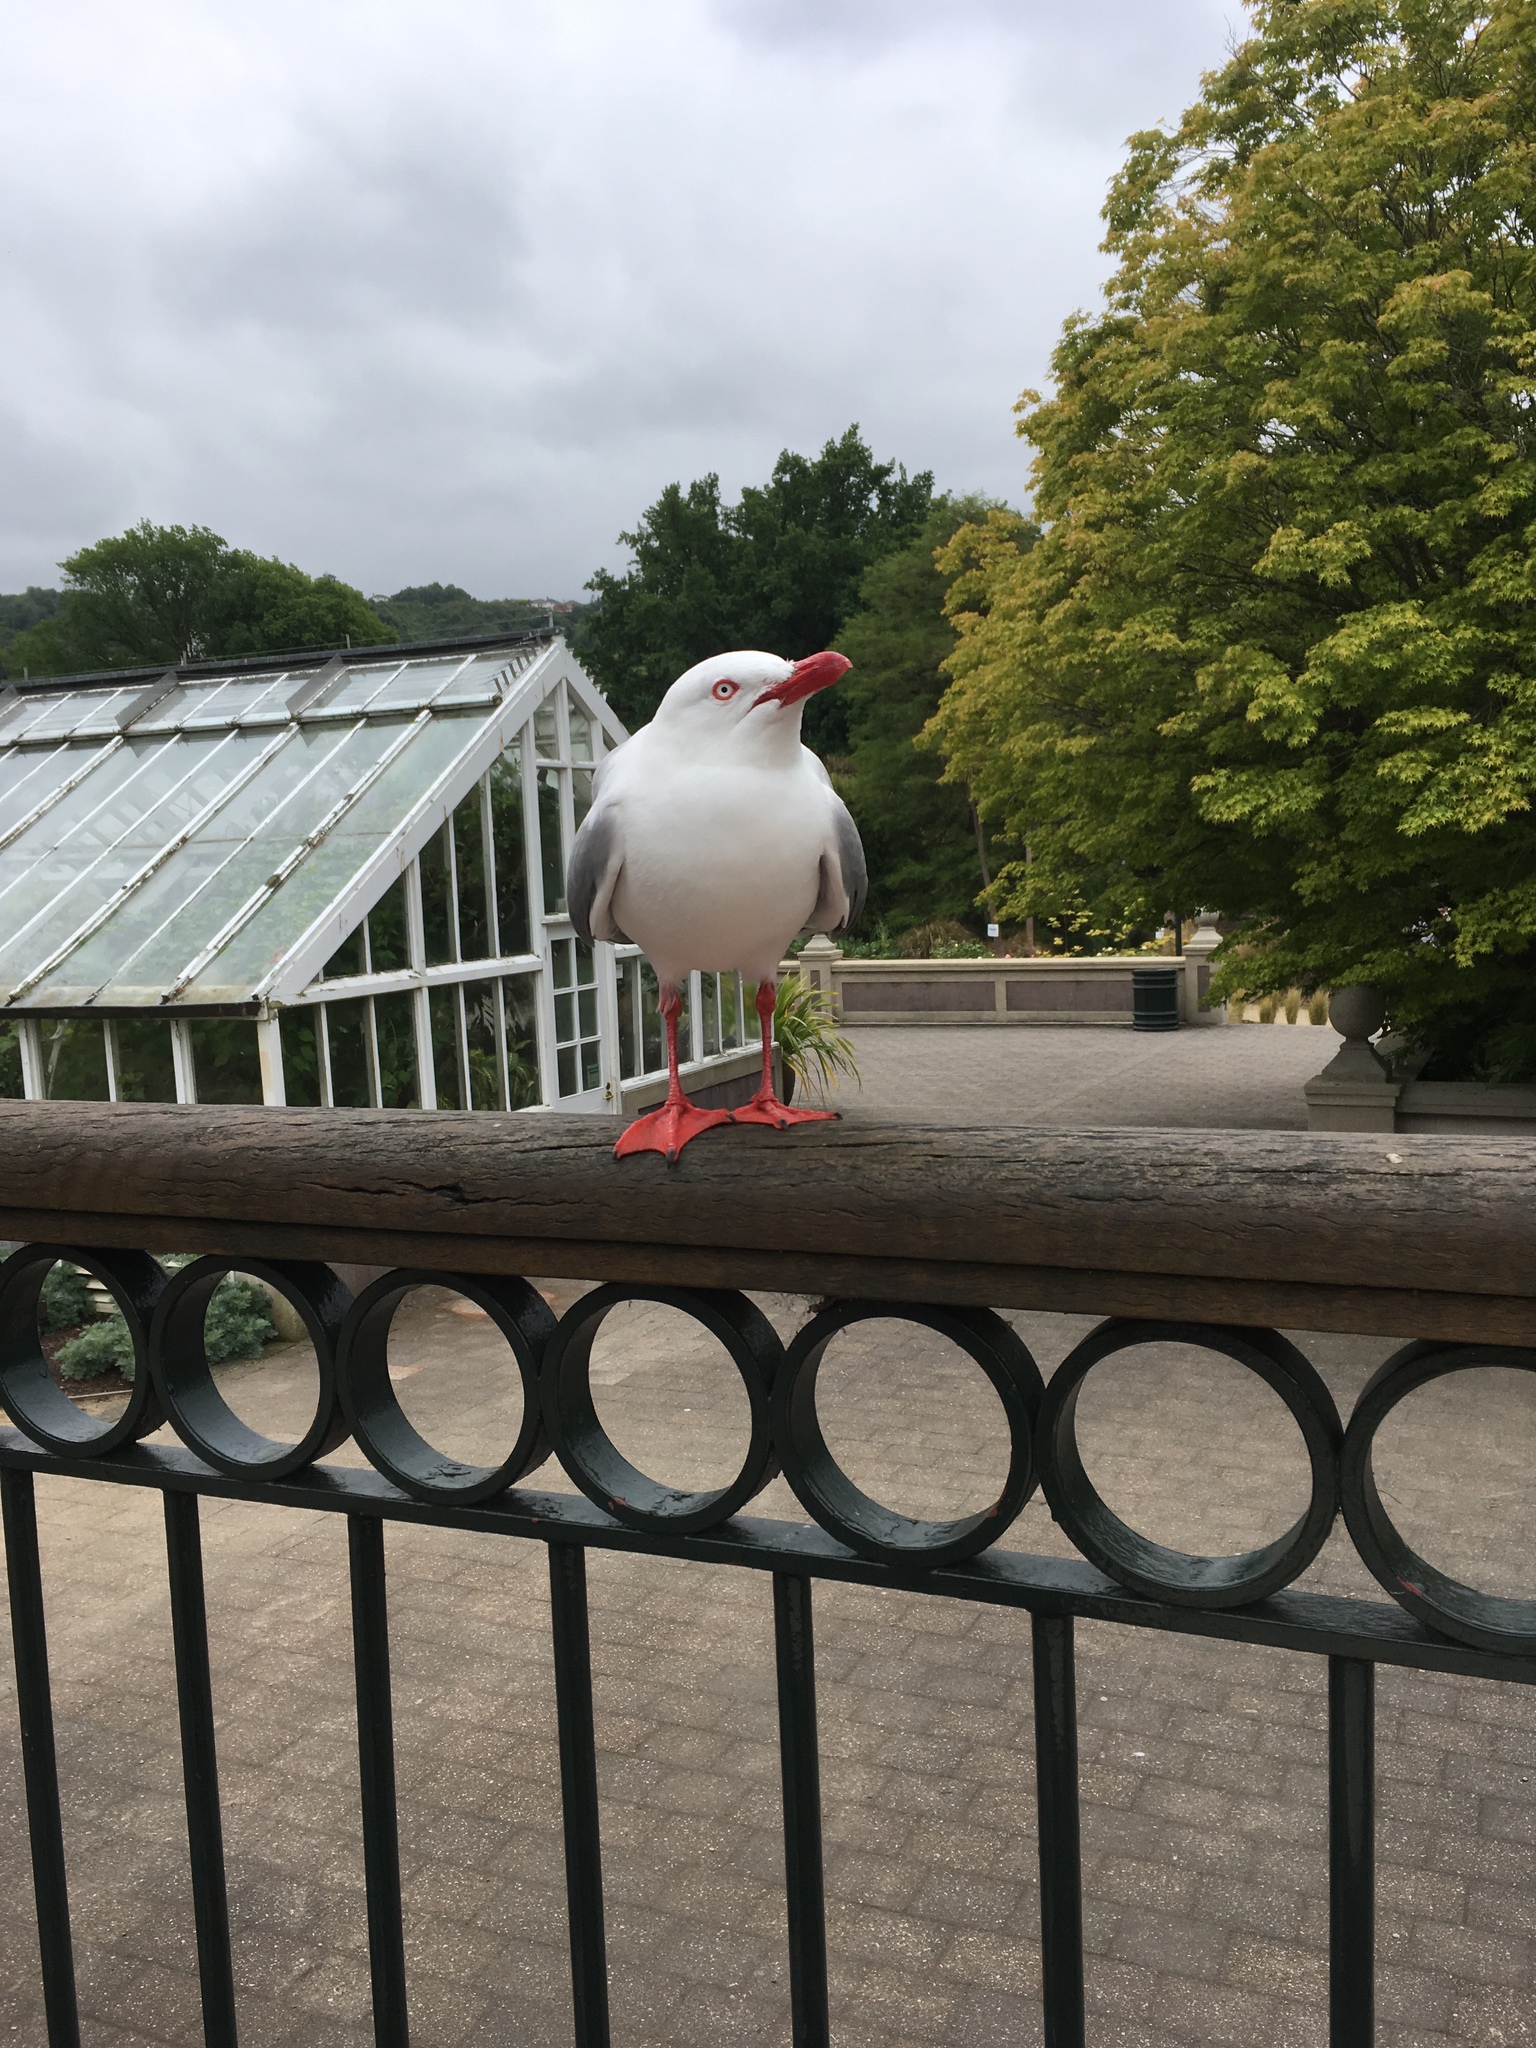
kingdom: Animalia
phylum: Chordata
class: Aves
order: Charadriiformes
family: Laridae
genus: Chroicocephalus
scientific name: Chroicocephalus novaehollandiae
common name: Silver gull
